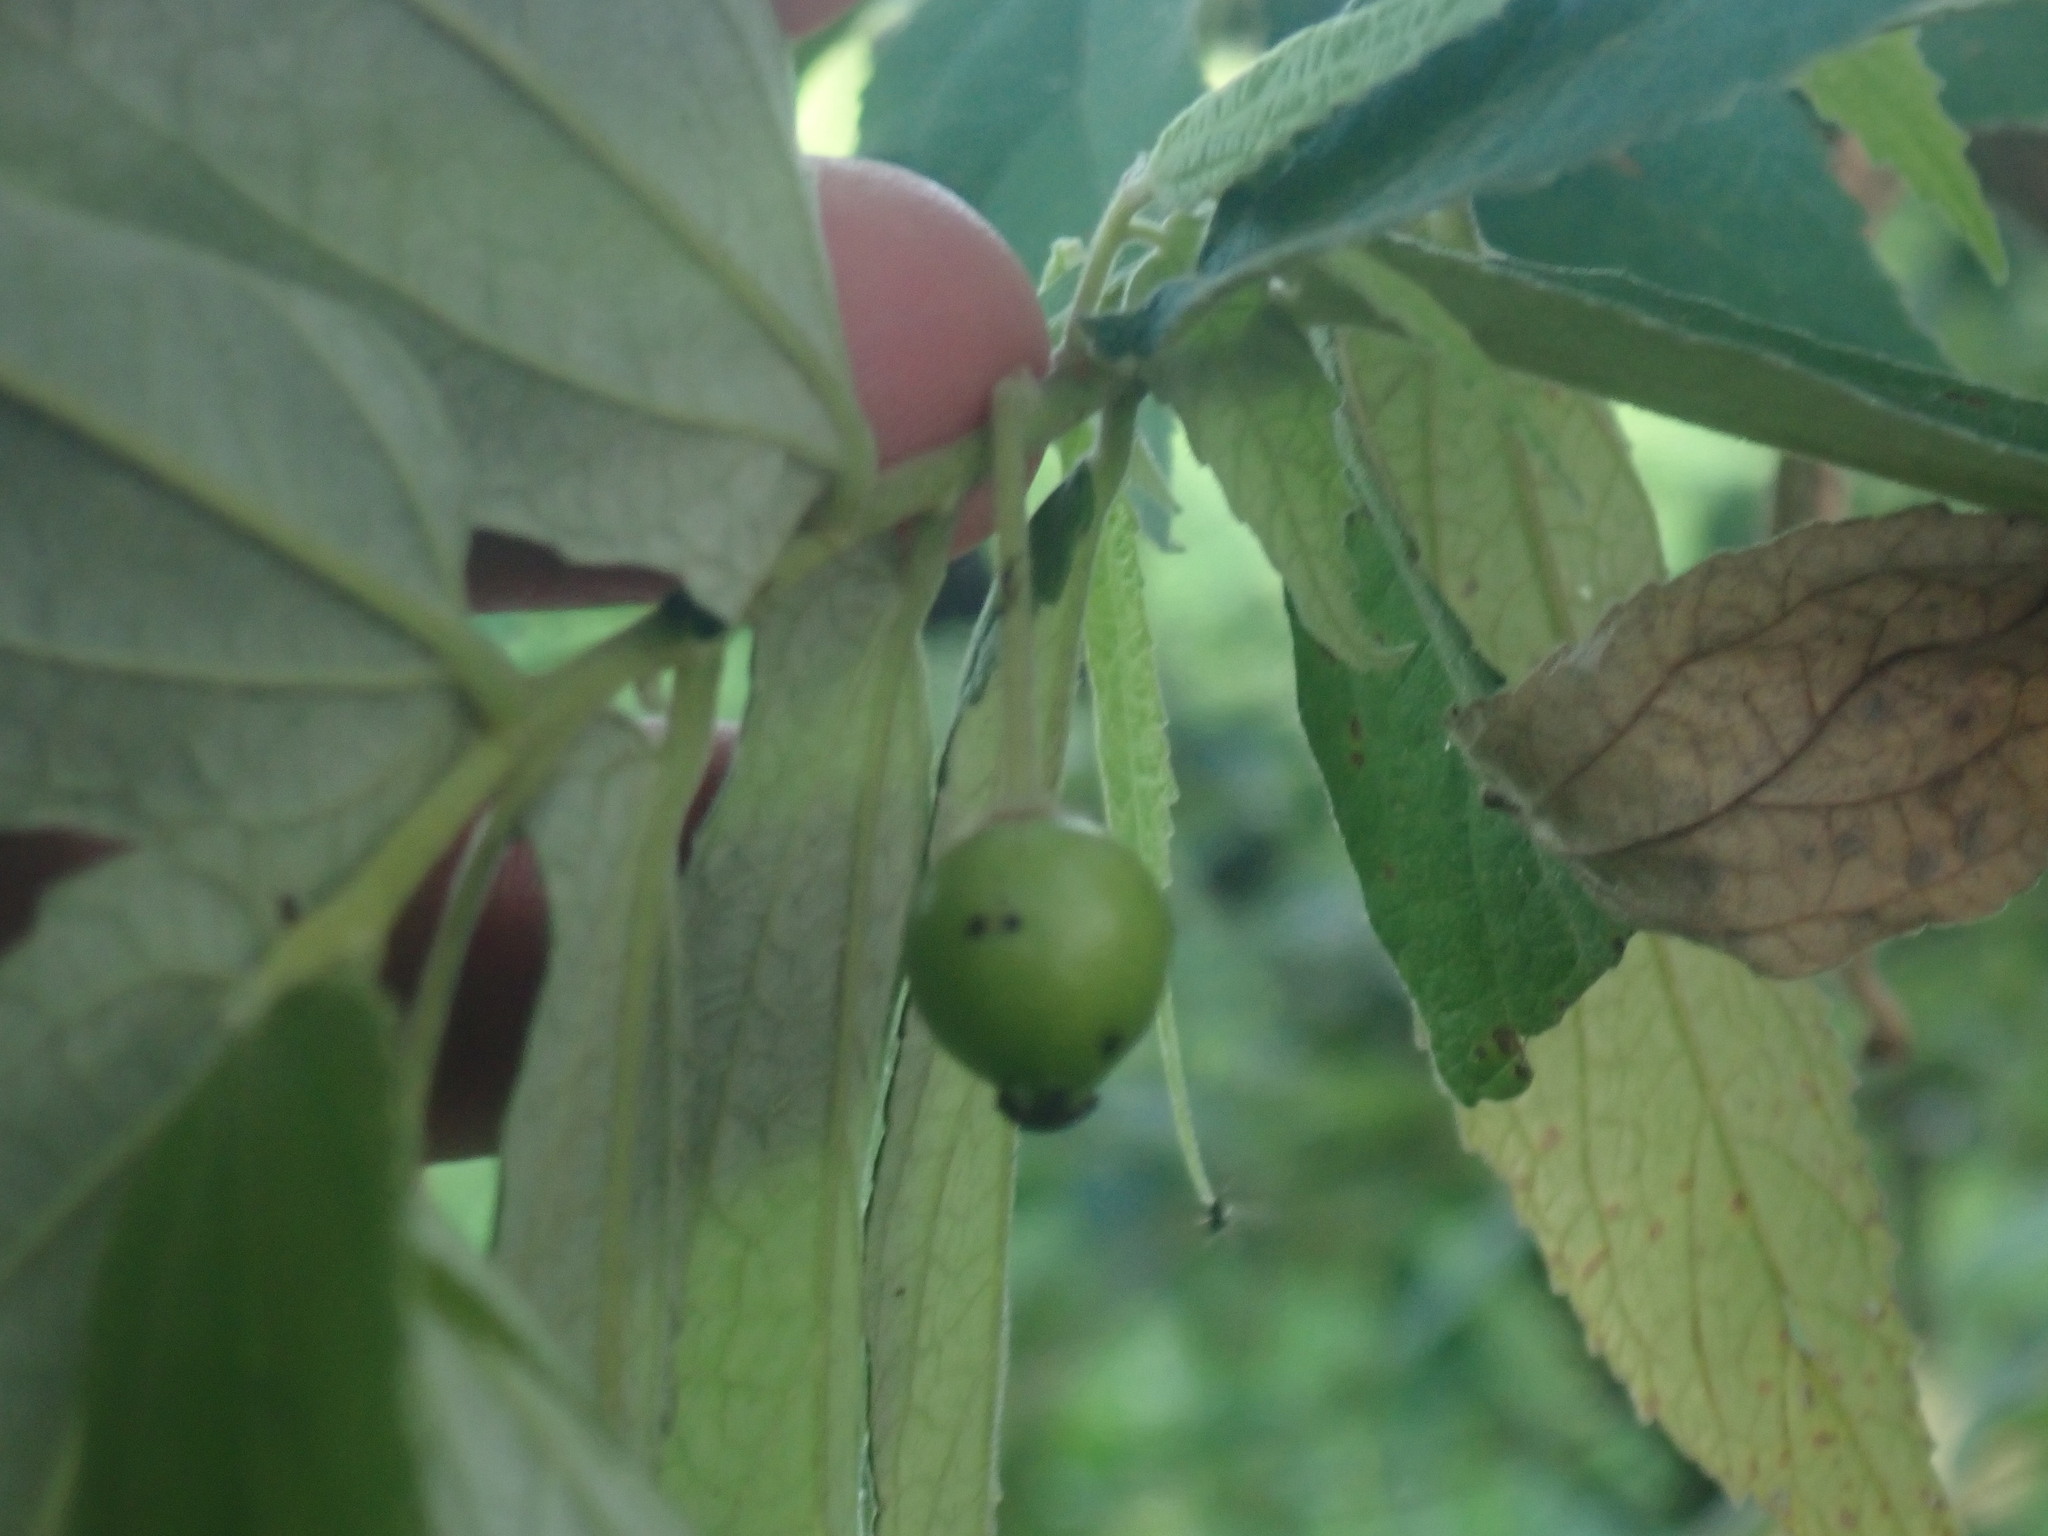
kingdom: Plantae
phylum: Tracheophyta
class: Magnoliopsida
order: Malvales
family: Muntingiaceae
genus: Muntingia
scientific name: Muntingia calabura
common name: Strawberrytree
